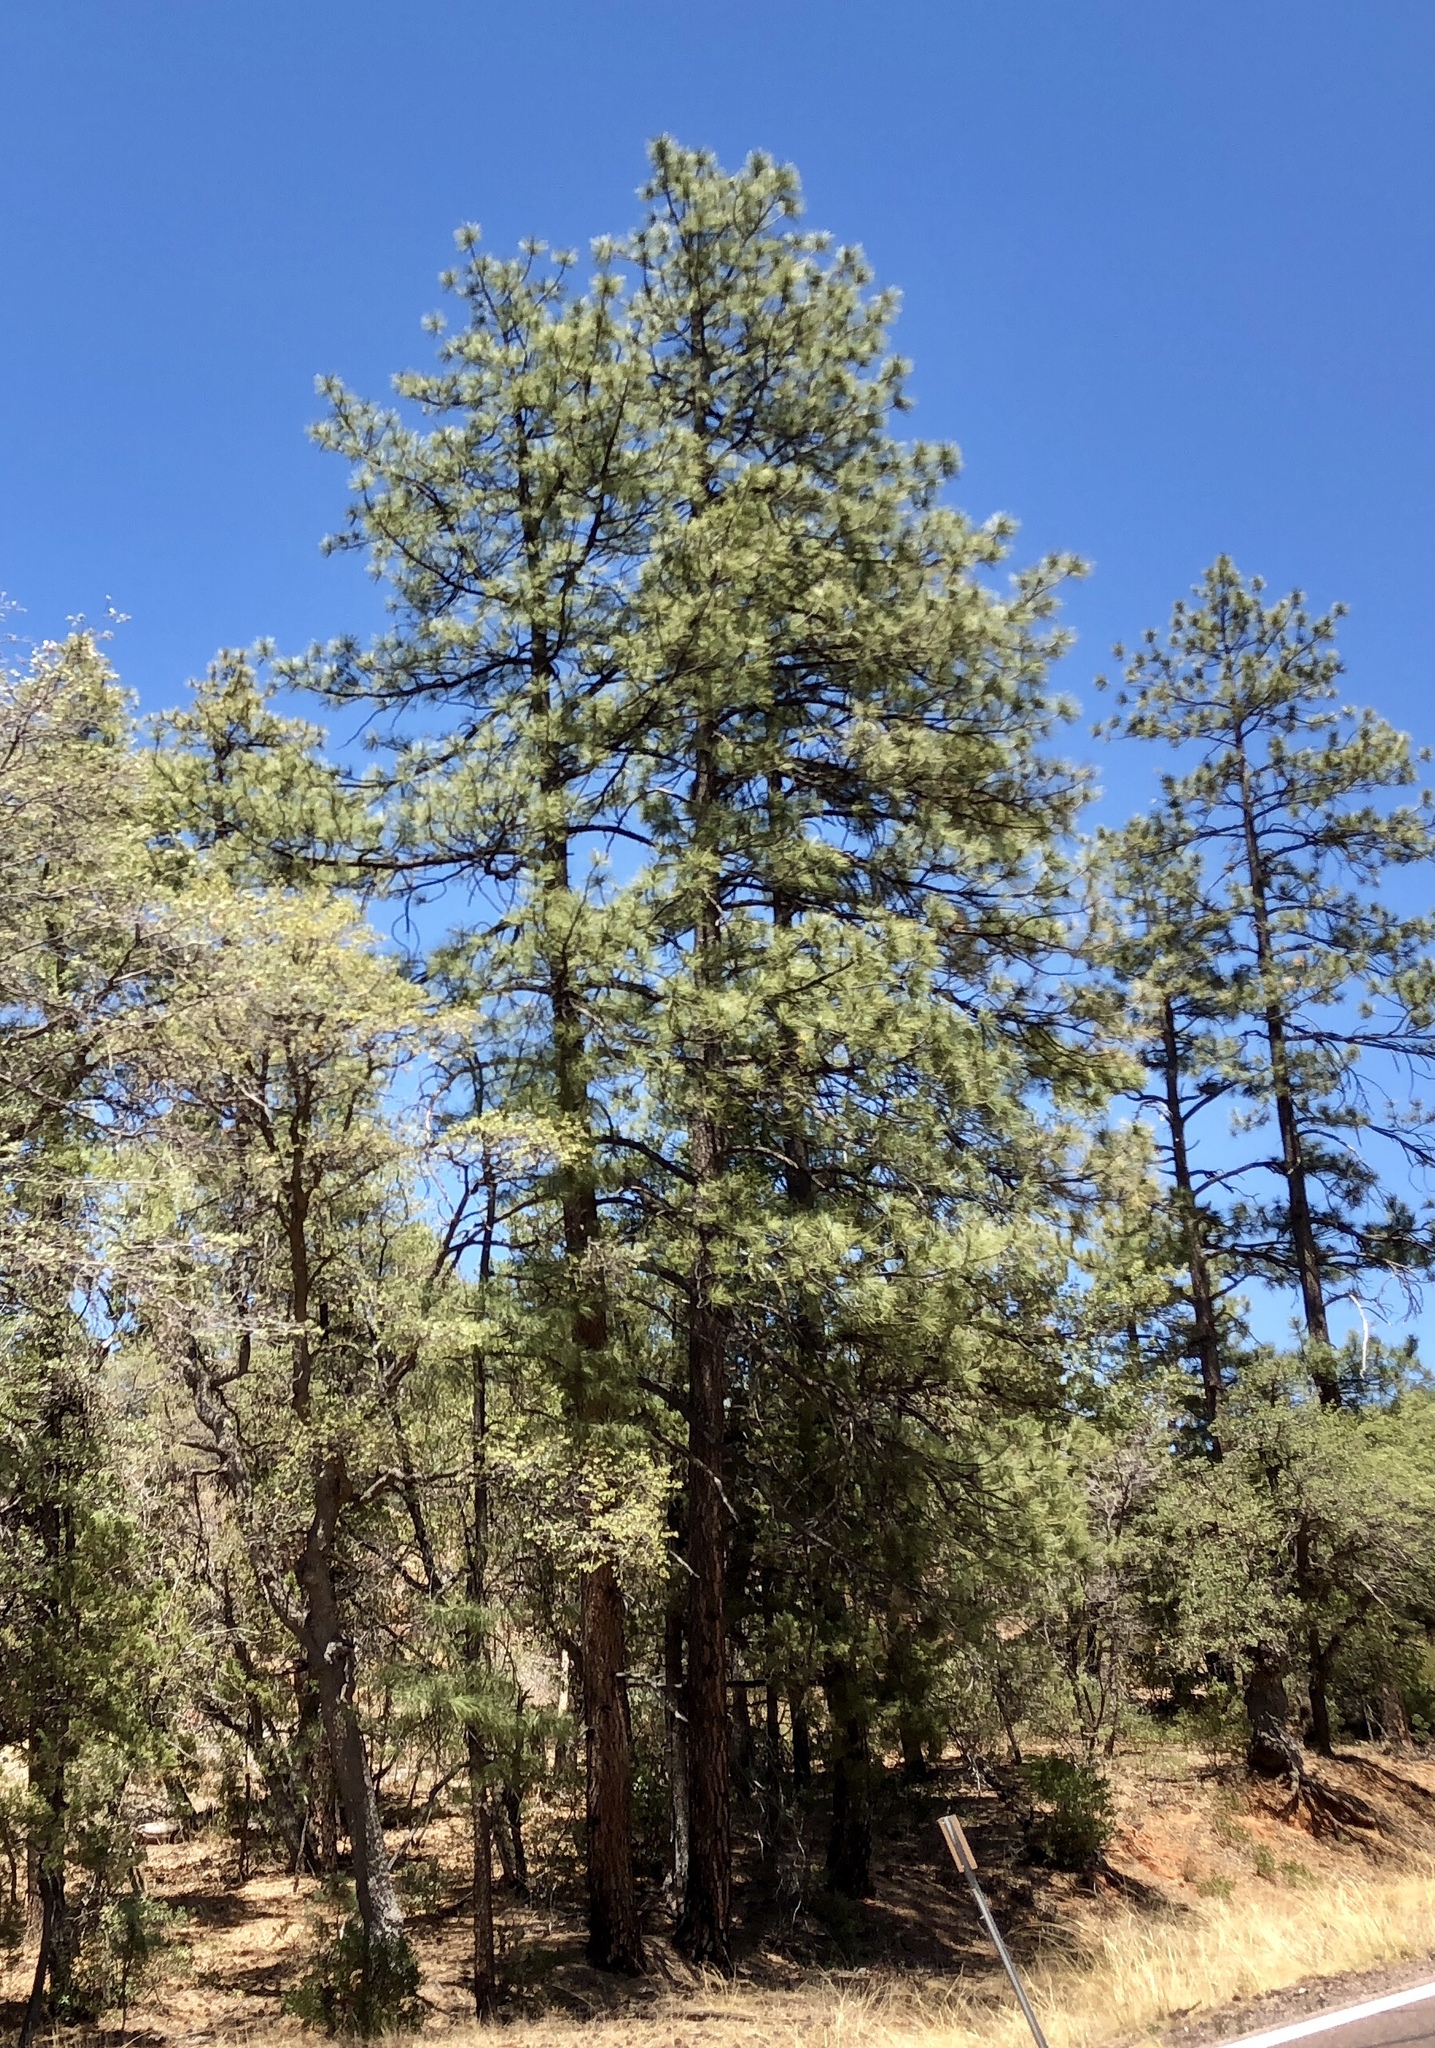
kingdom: Plantae
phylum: Tracheophyta
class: Pinopsida
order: Pinales
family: Pinaceae
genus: Pinus
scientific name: Pinus ponderosa
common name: Western yellow-pine
